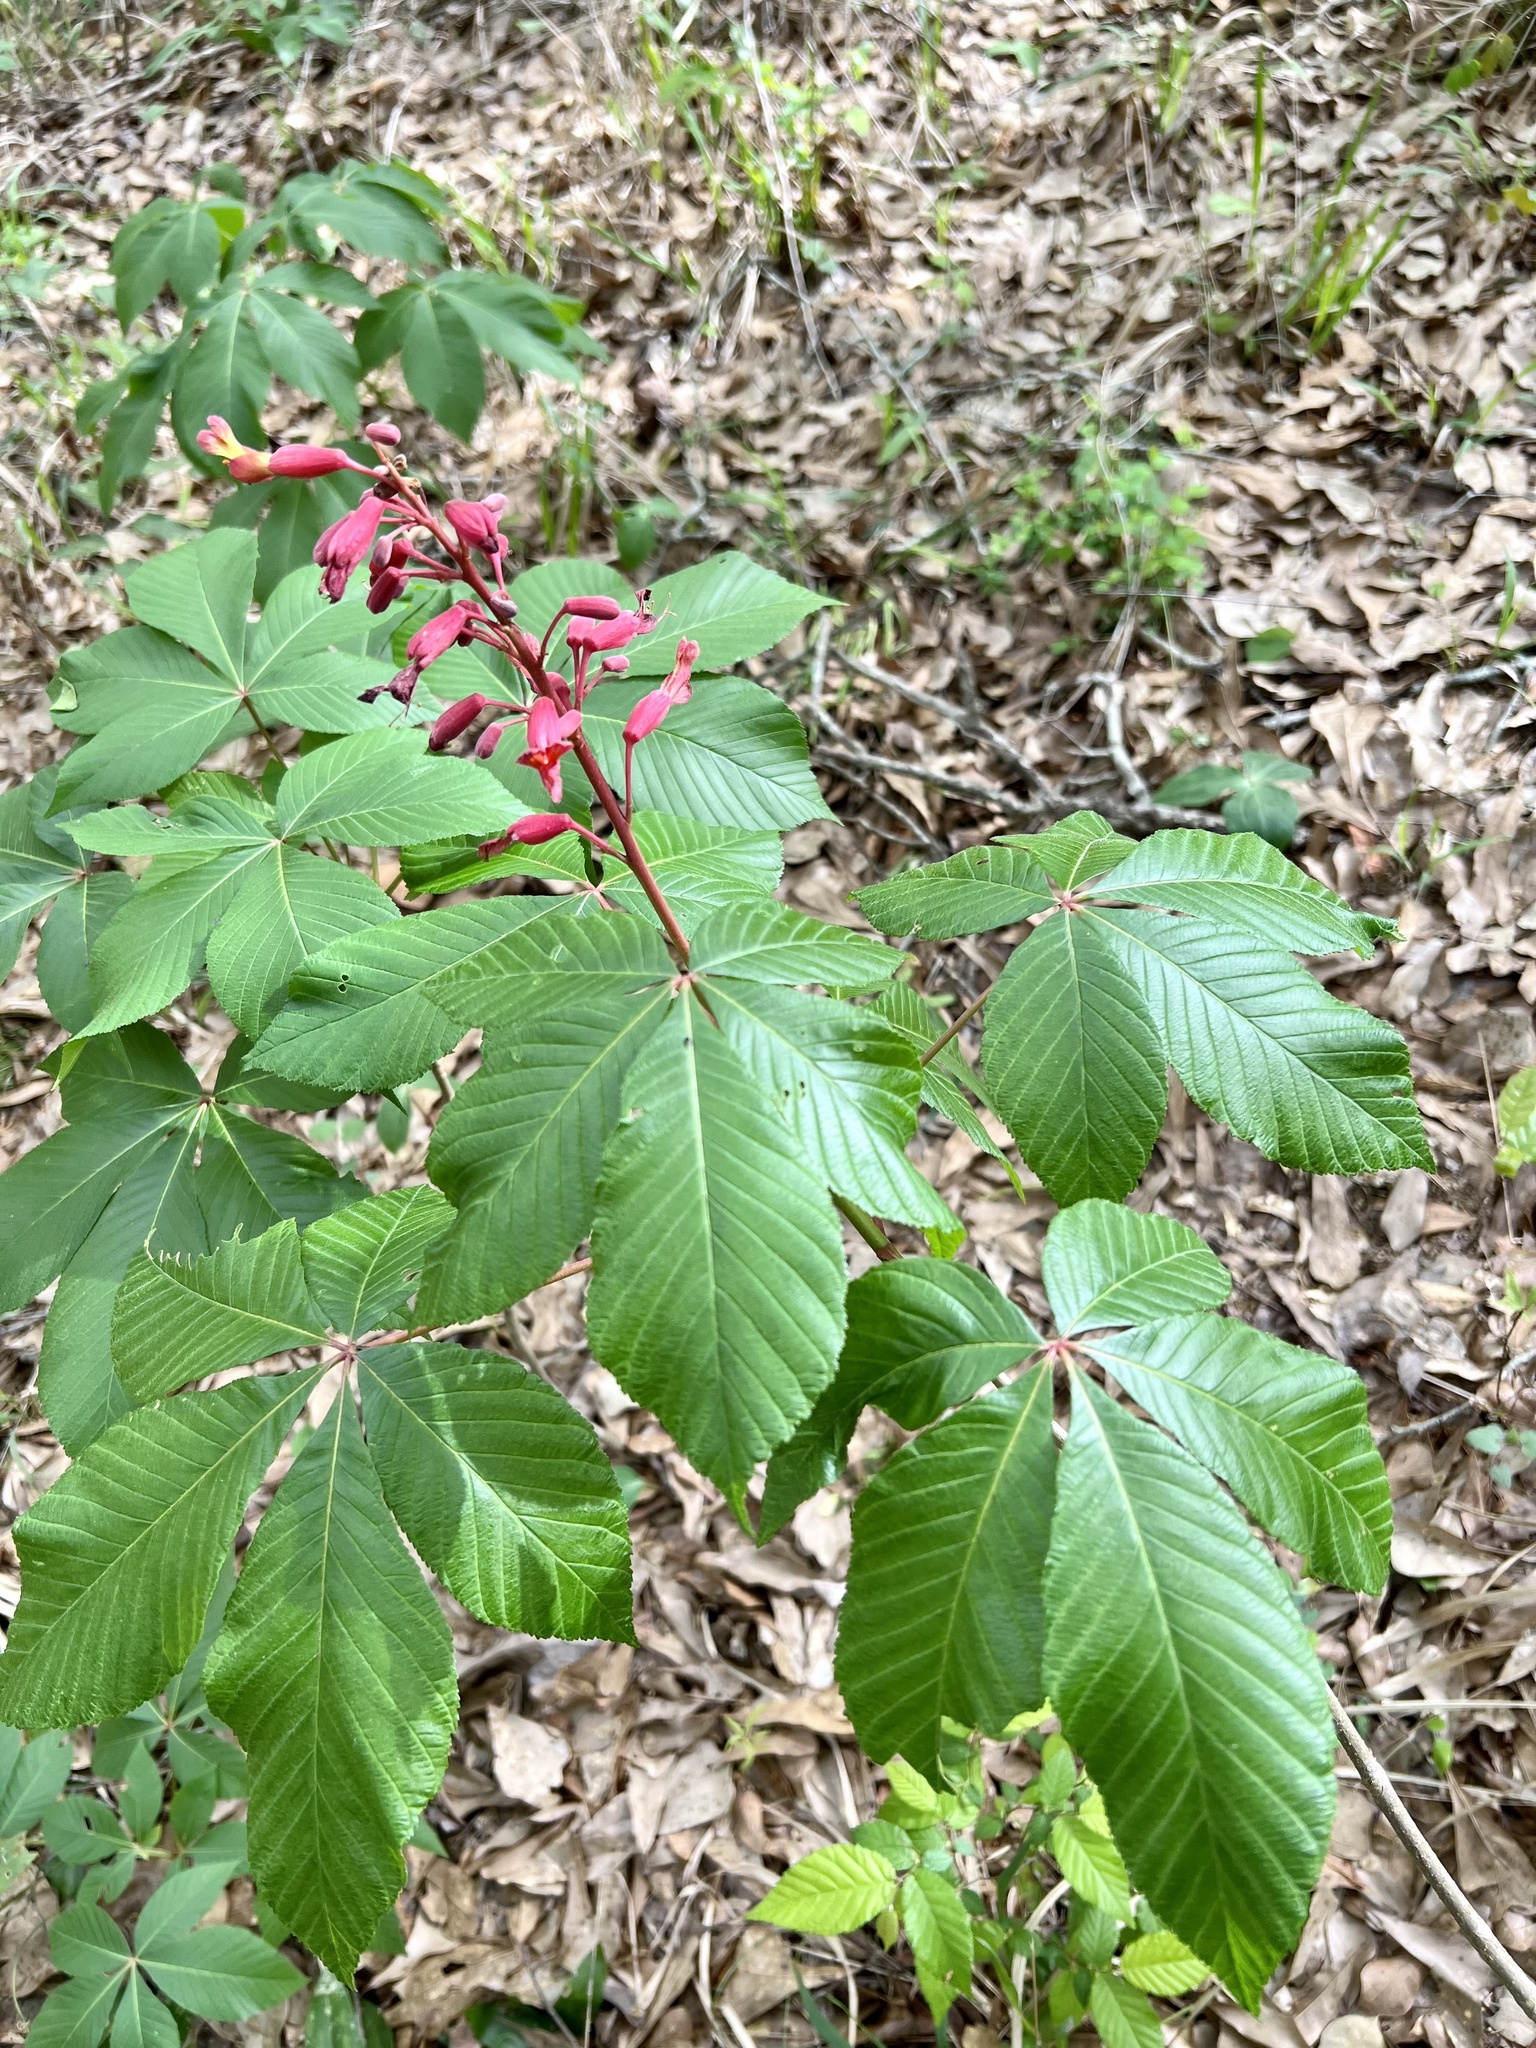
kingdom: Plantae
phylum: Tracheophyta
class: Magnoliopsida
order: Sapindales
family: Sapindaceae
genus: Aesculus
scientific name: Aesculus pavia
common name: Red buckeye
